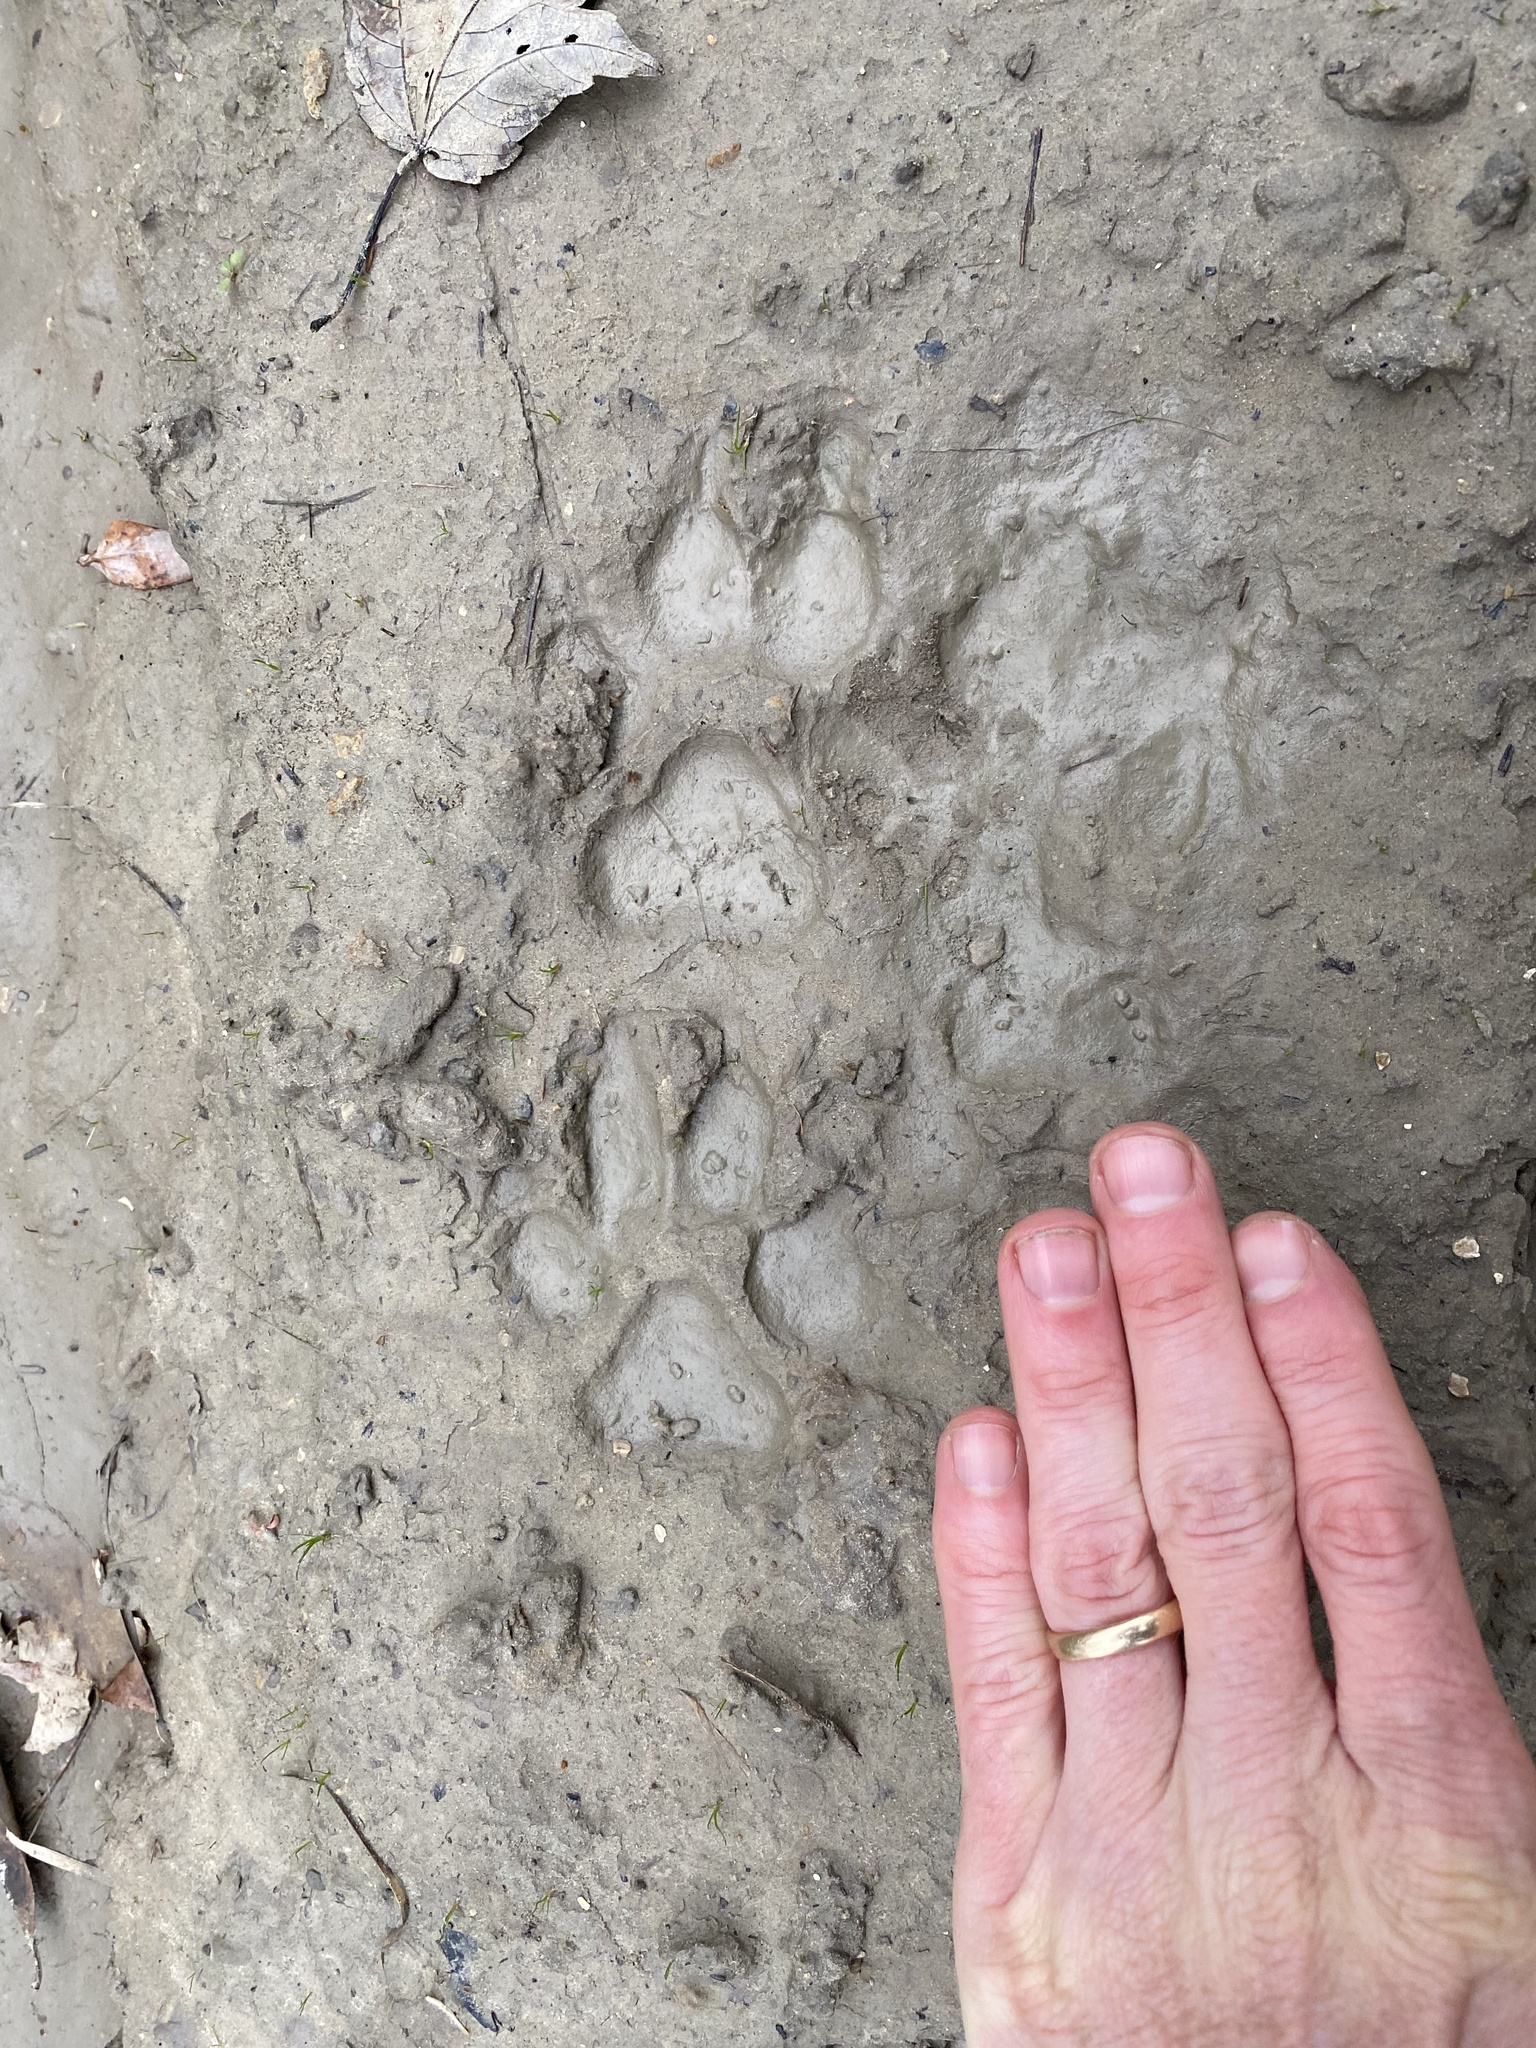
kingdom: Animalia
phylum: Chordata
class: Mammalia
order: Carnivora
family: Canidae
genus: Canis
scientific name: Canis lupus
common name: Gray wolf
